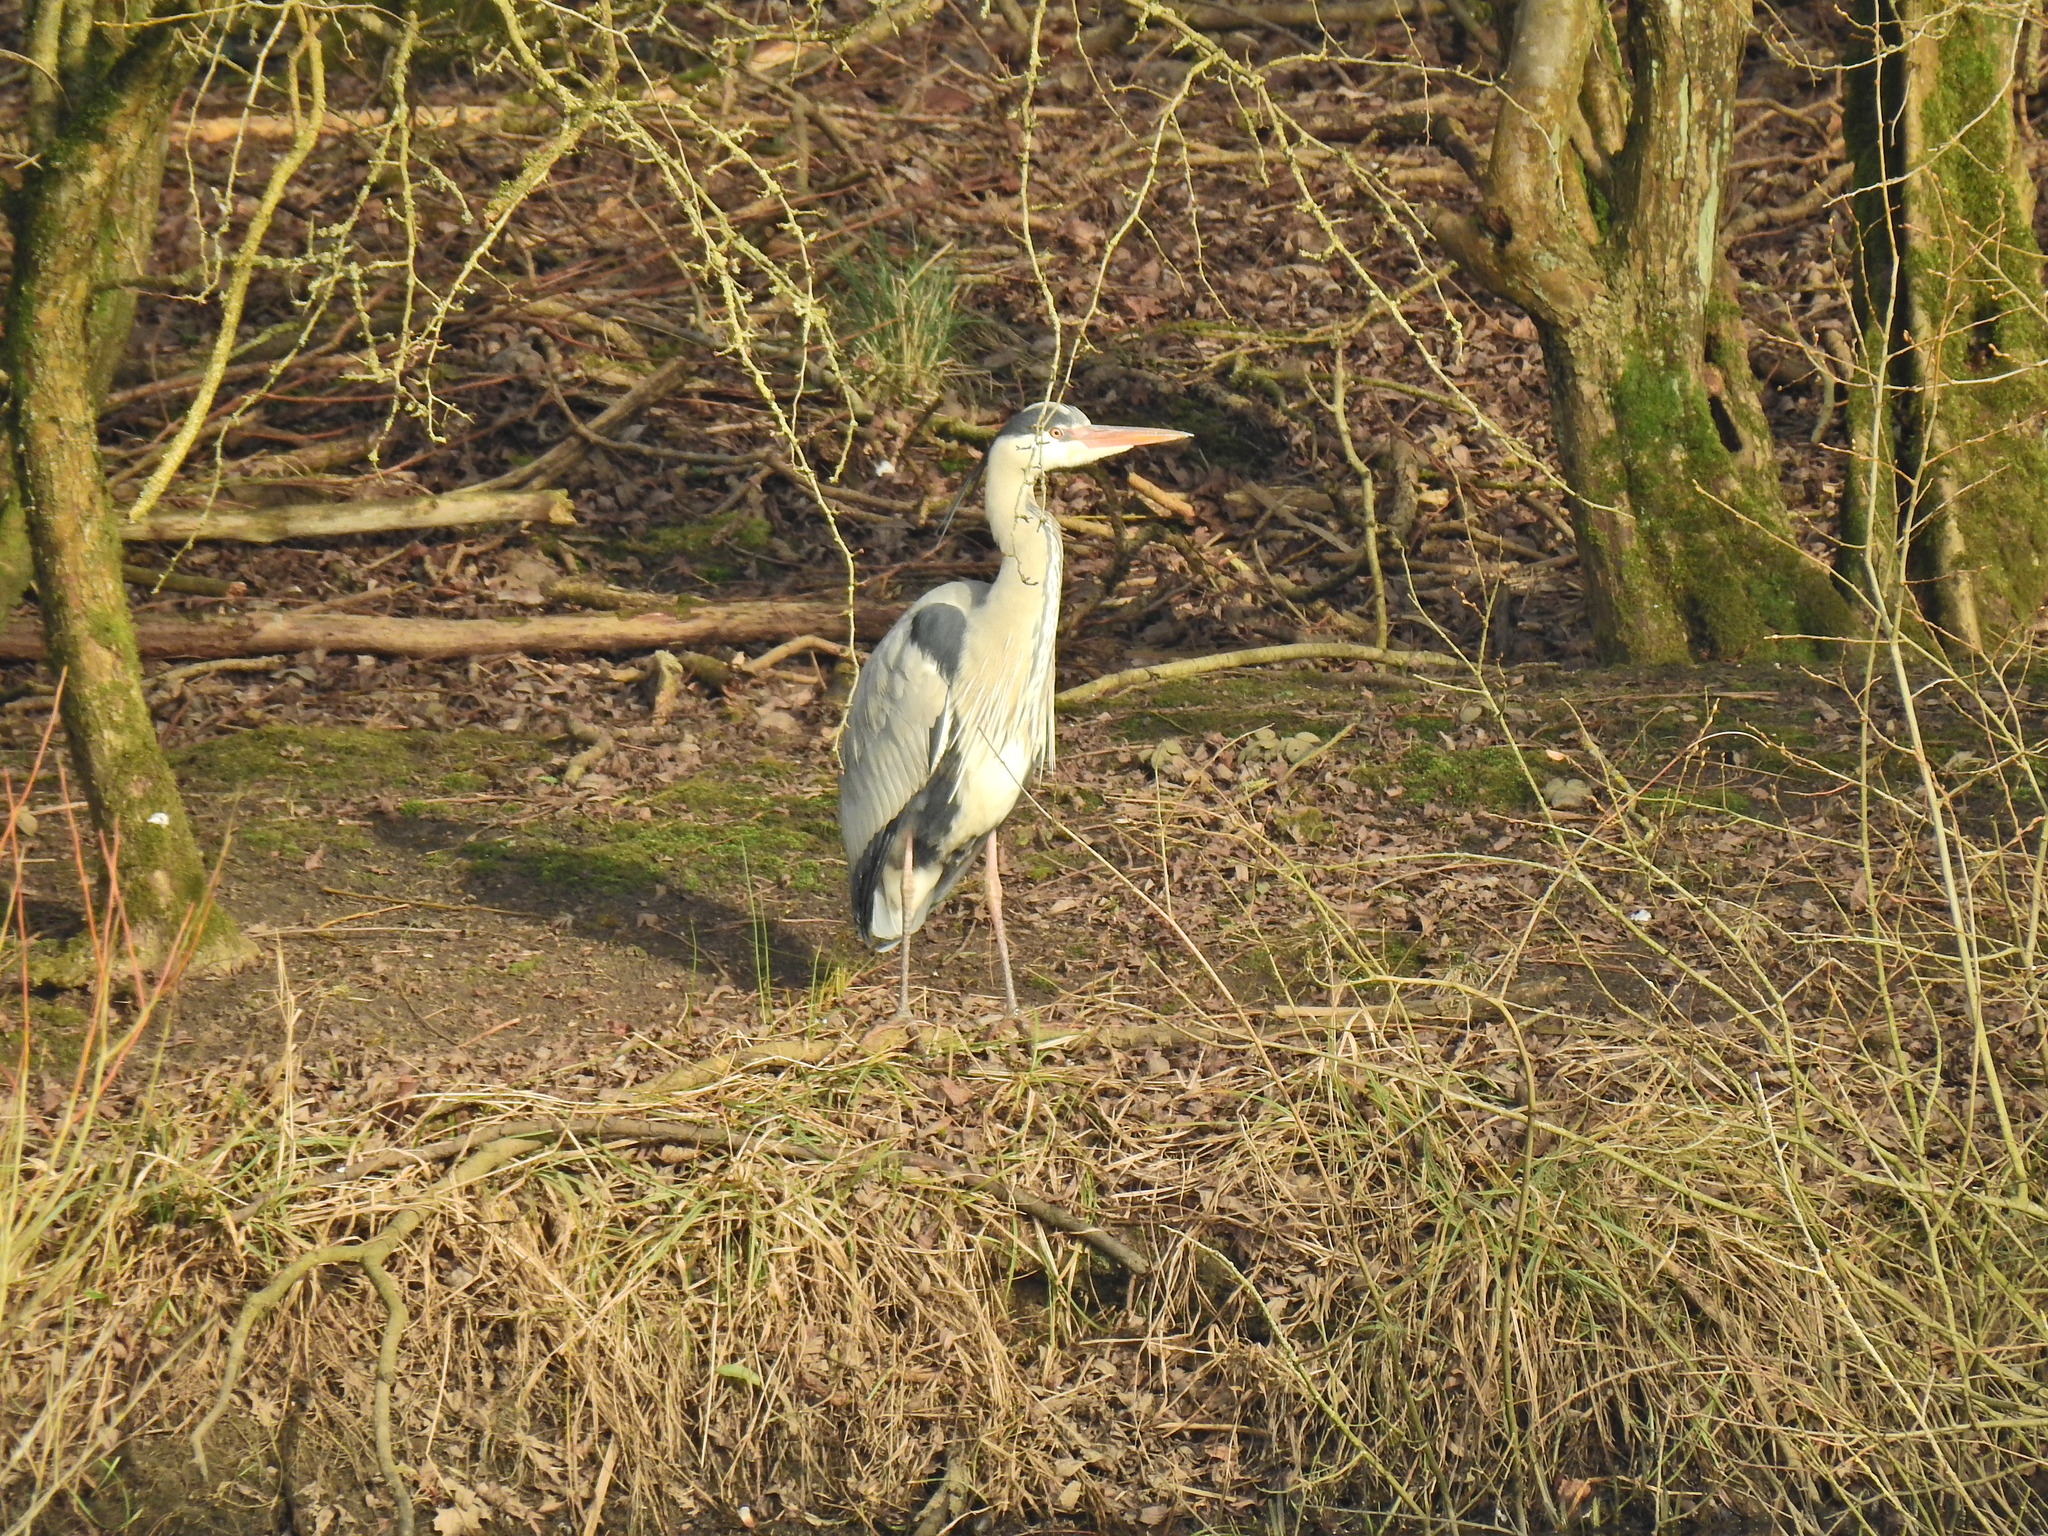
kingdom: Animalia
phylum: Chordata
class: Aves
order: Pelecaniformes
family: Ardeidae
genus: Ardea
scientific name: Ardea cinerea
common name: Grey heron
